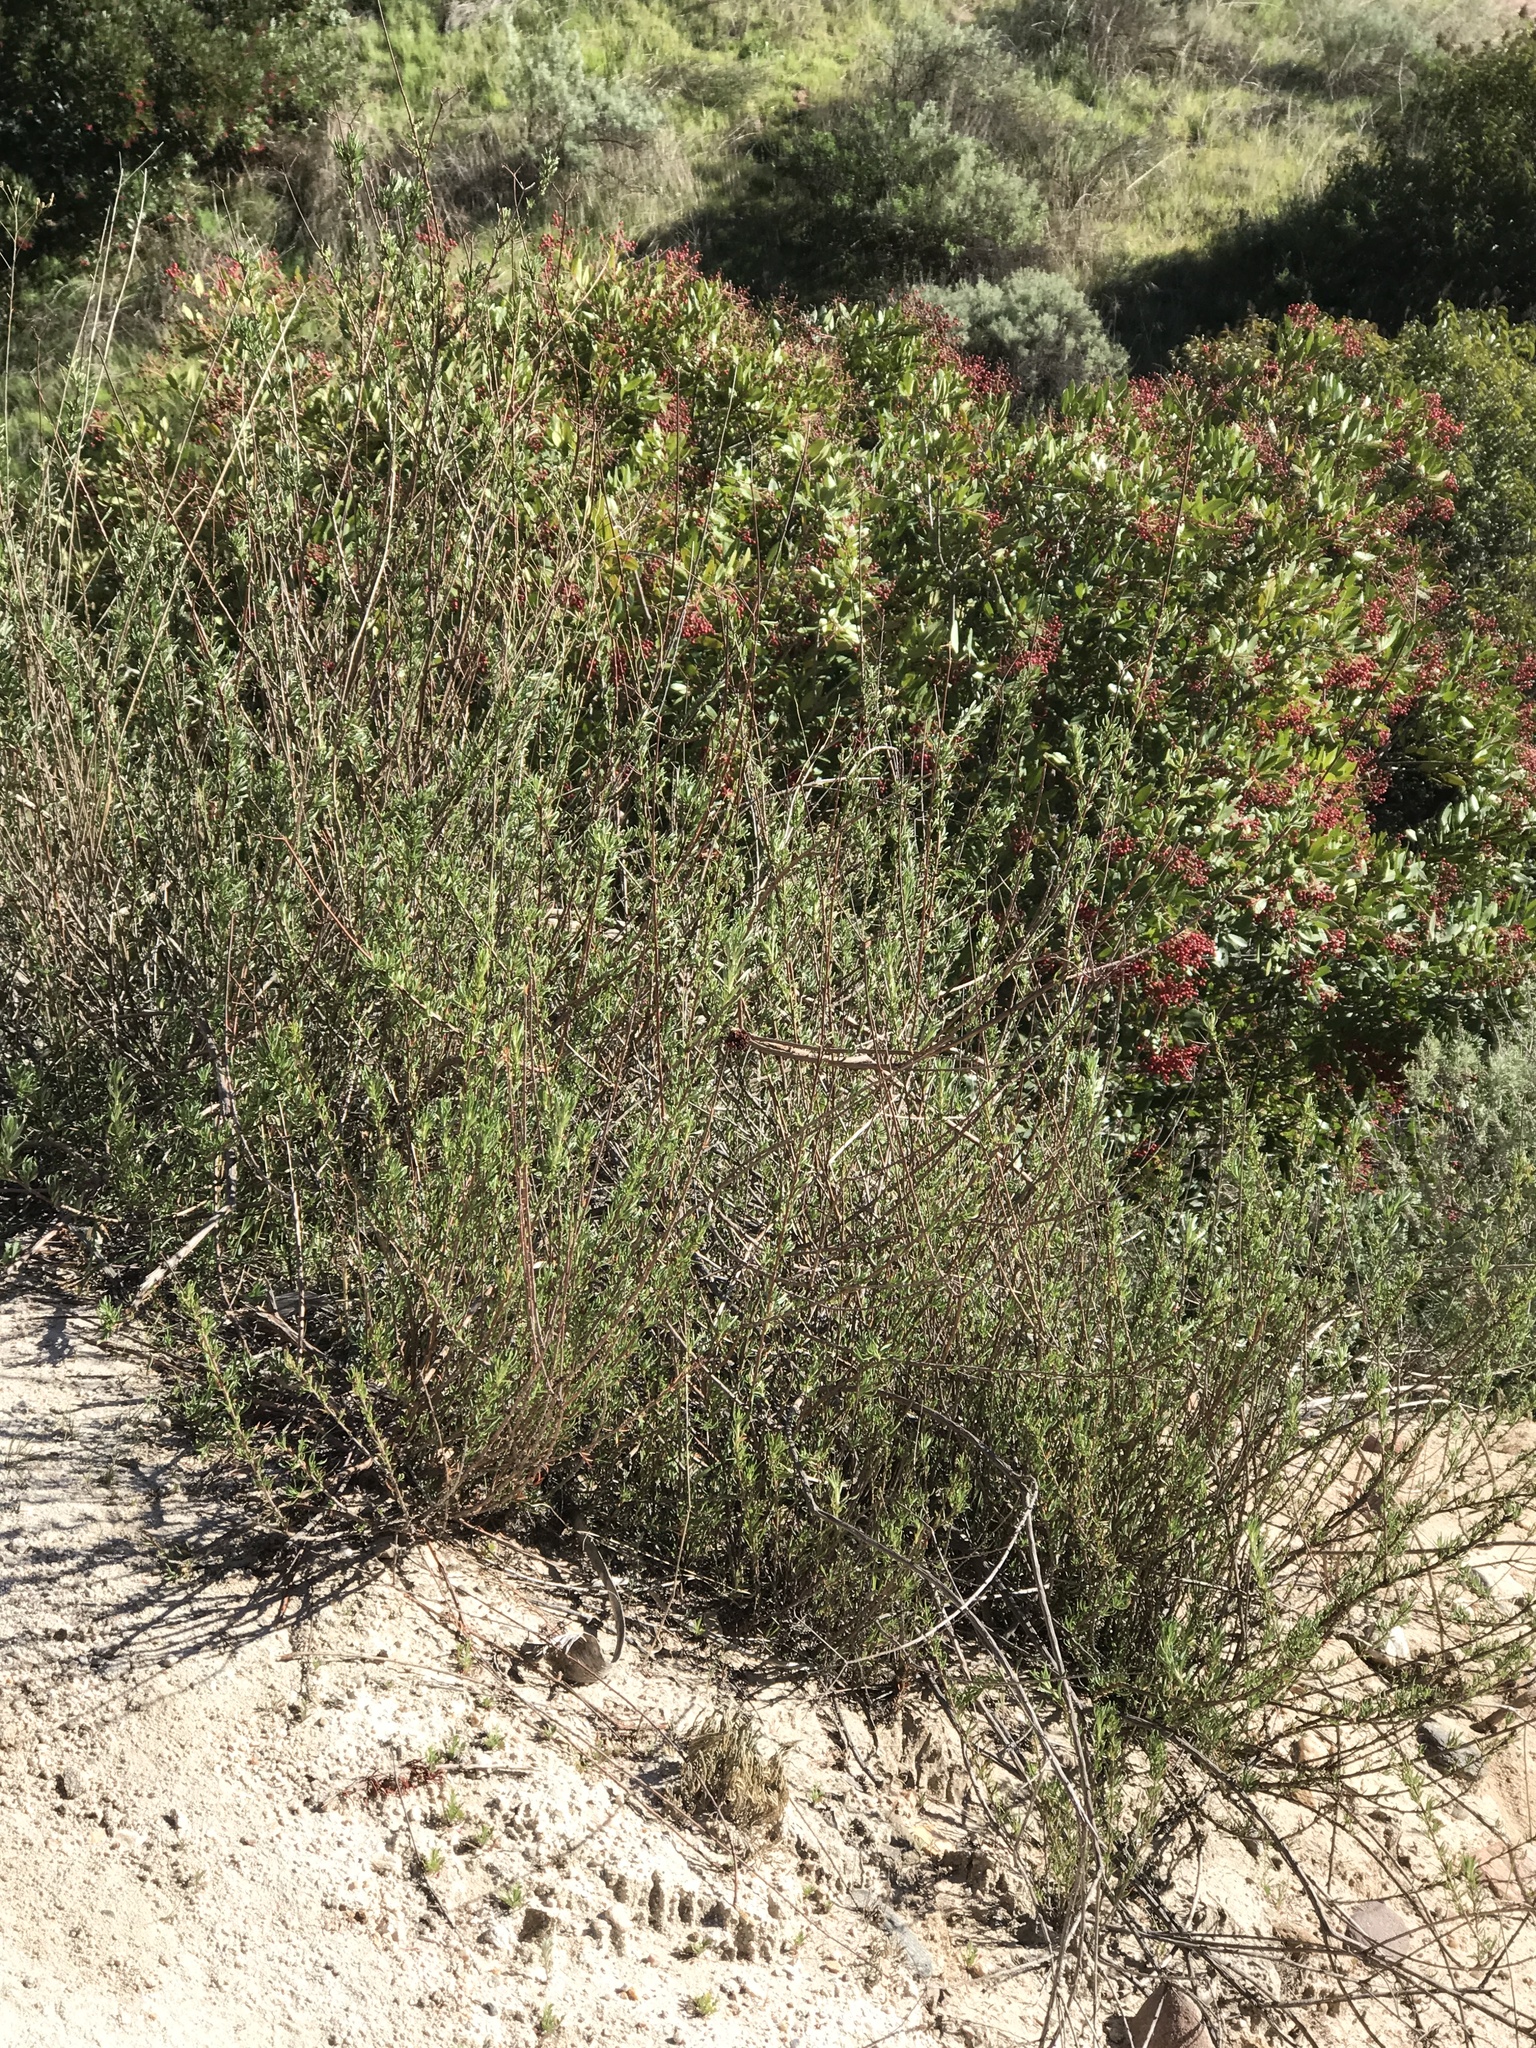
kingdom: Plantae
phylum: Tracheophyta
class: Magnoliopsida
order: Caryophyllales
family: Polygonaceae
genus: Eriogonum
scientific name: Eriogonum fasciculatum
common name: California wild buckwheat
